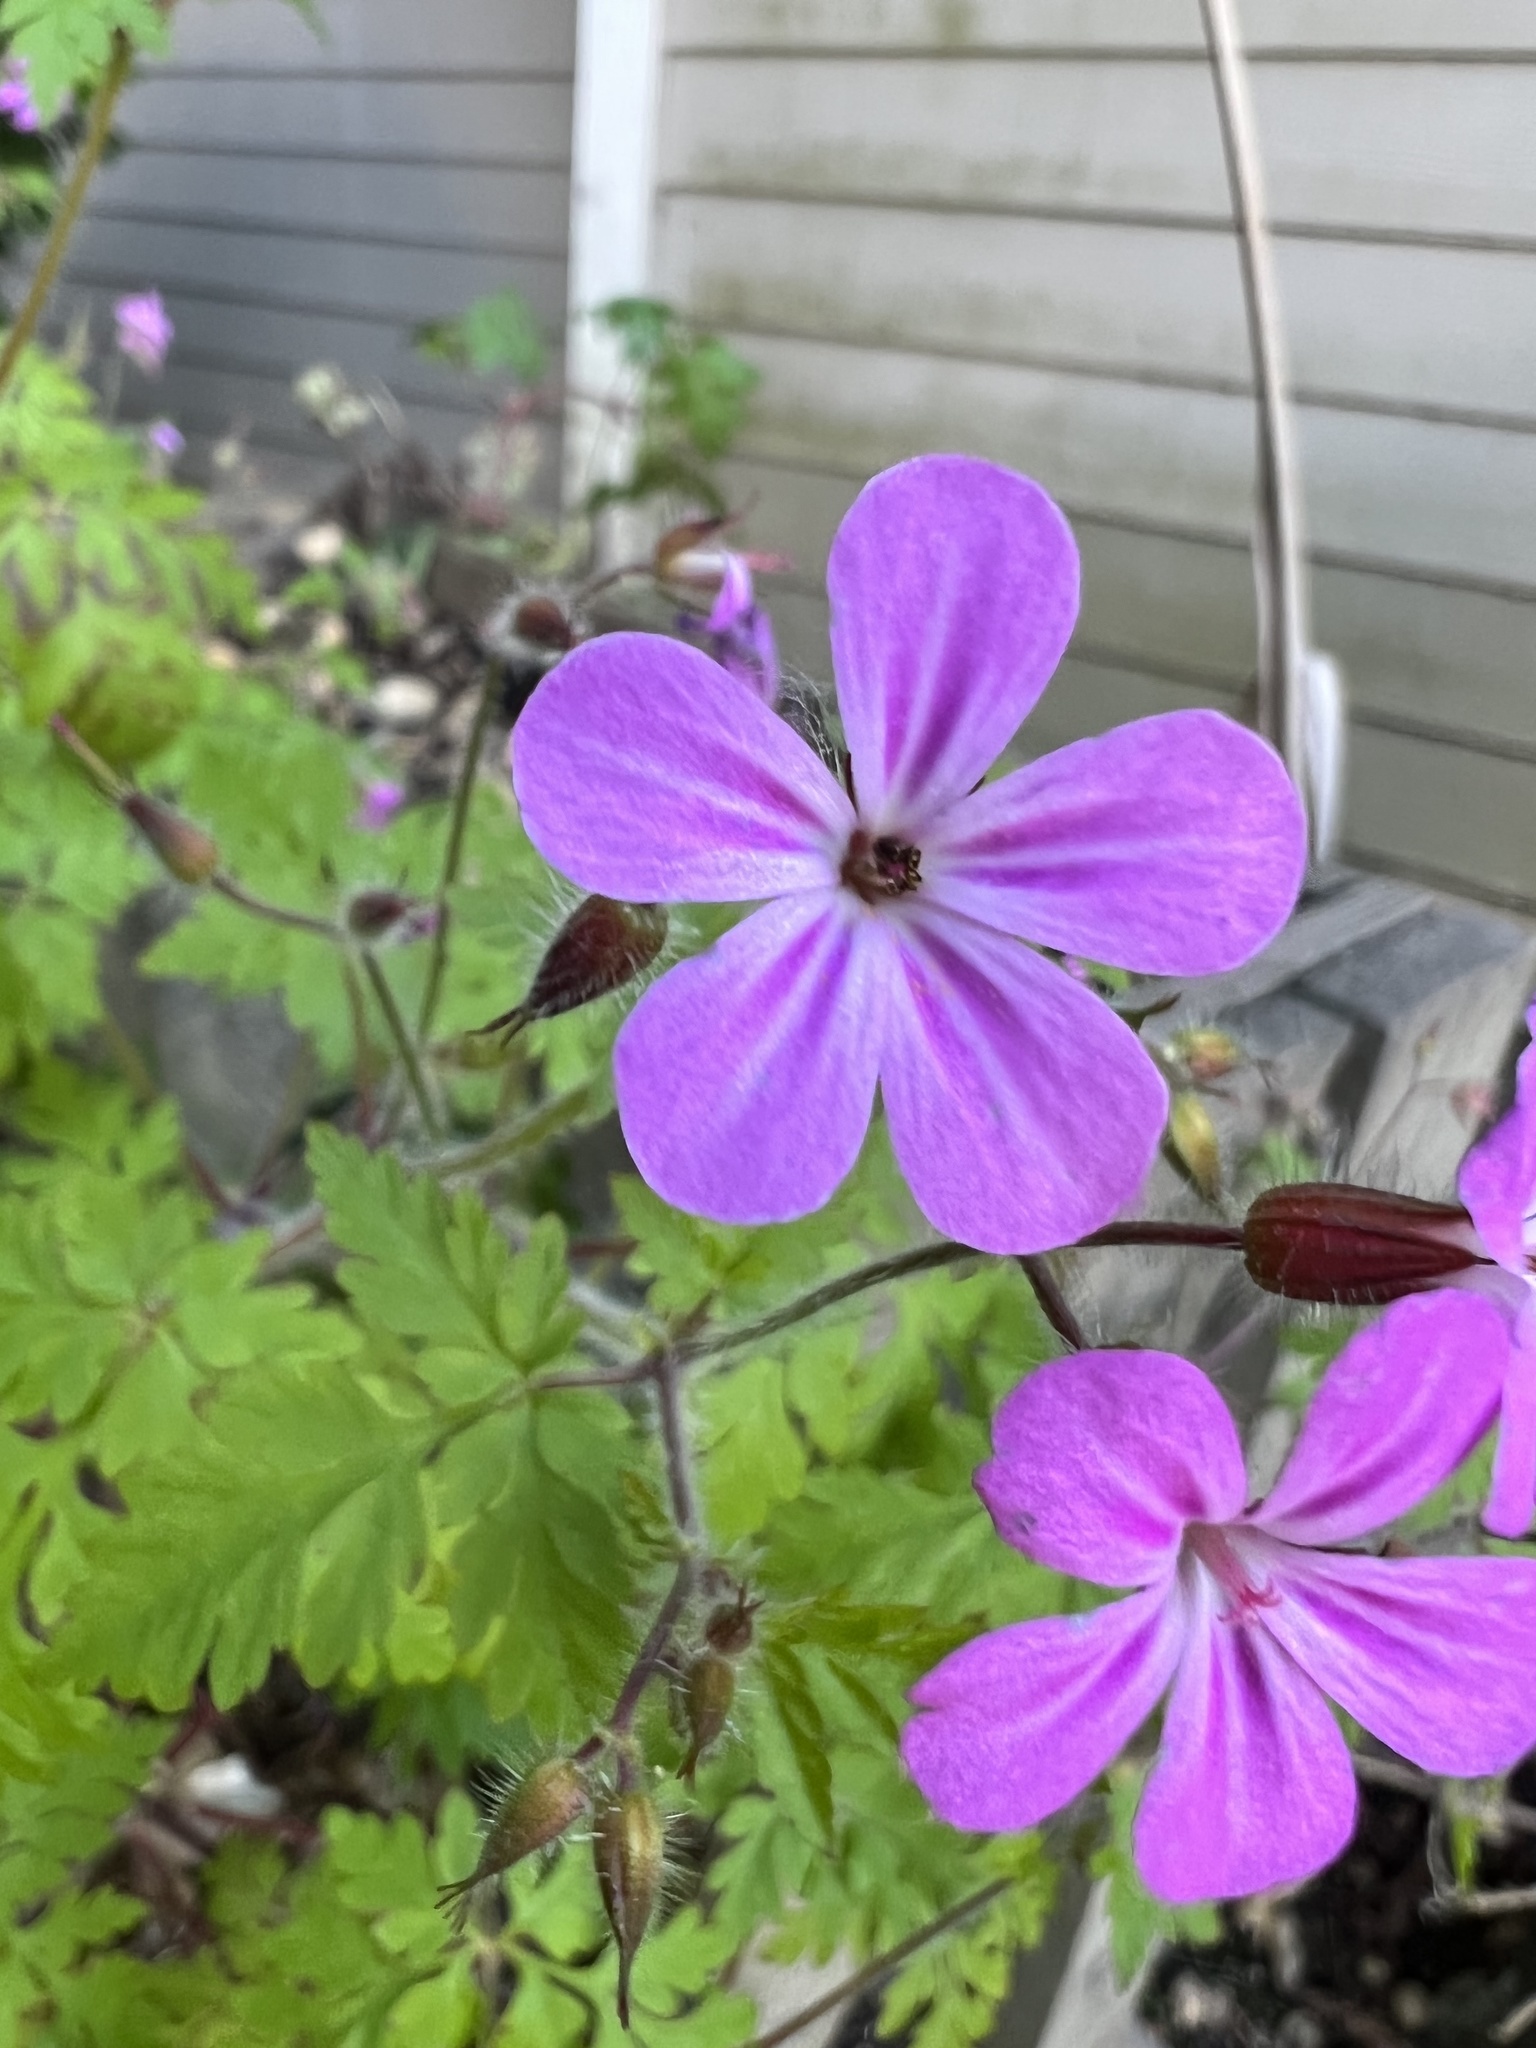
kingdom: Plantae
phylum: Tracheophyta
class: Magnoliopsida
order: Geraniales
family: Geraniaceae
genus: Geranium
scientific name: Geranium robertianum
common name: Herb-robert
